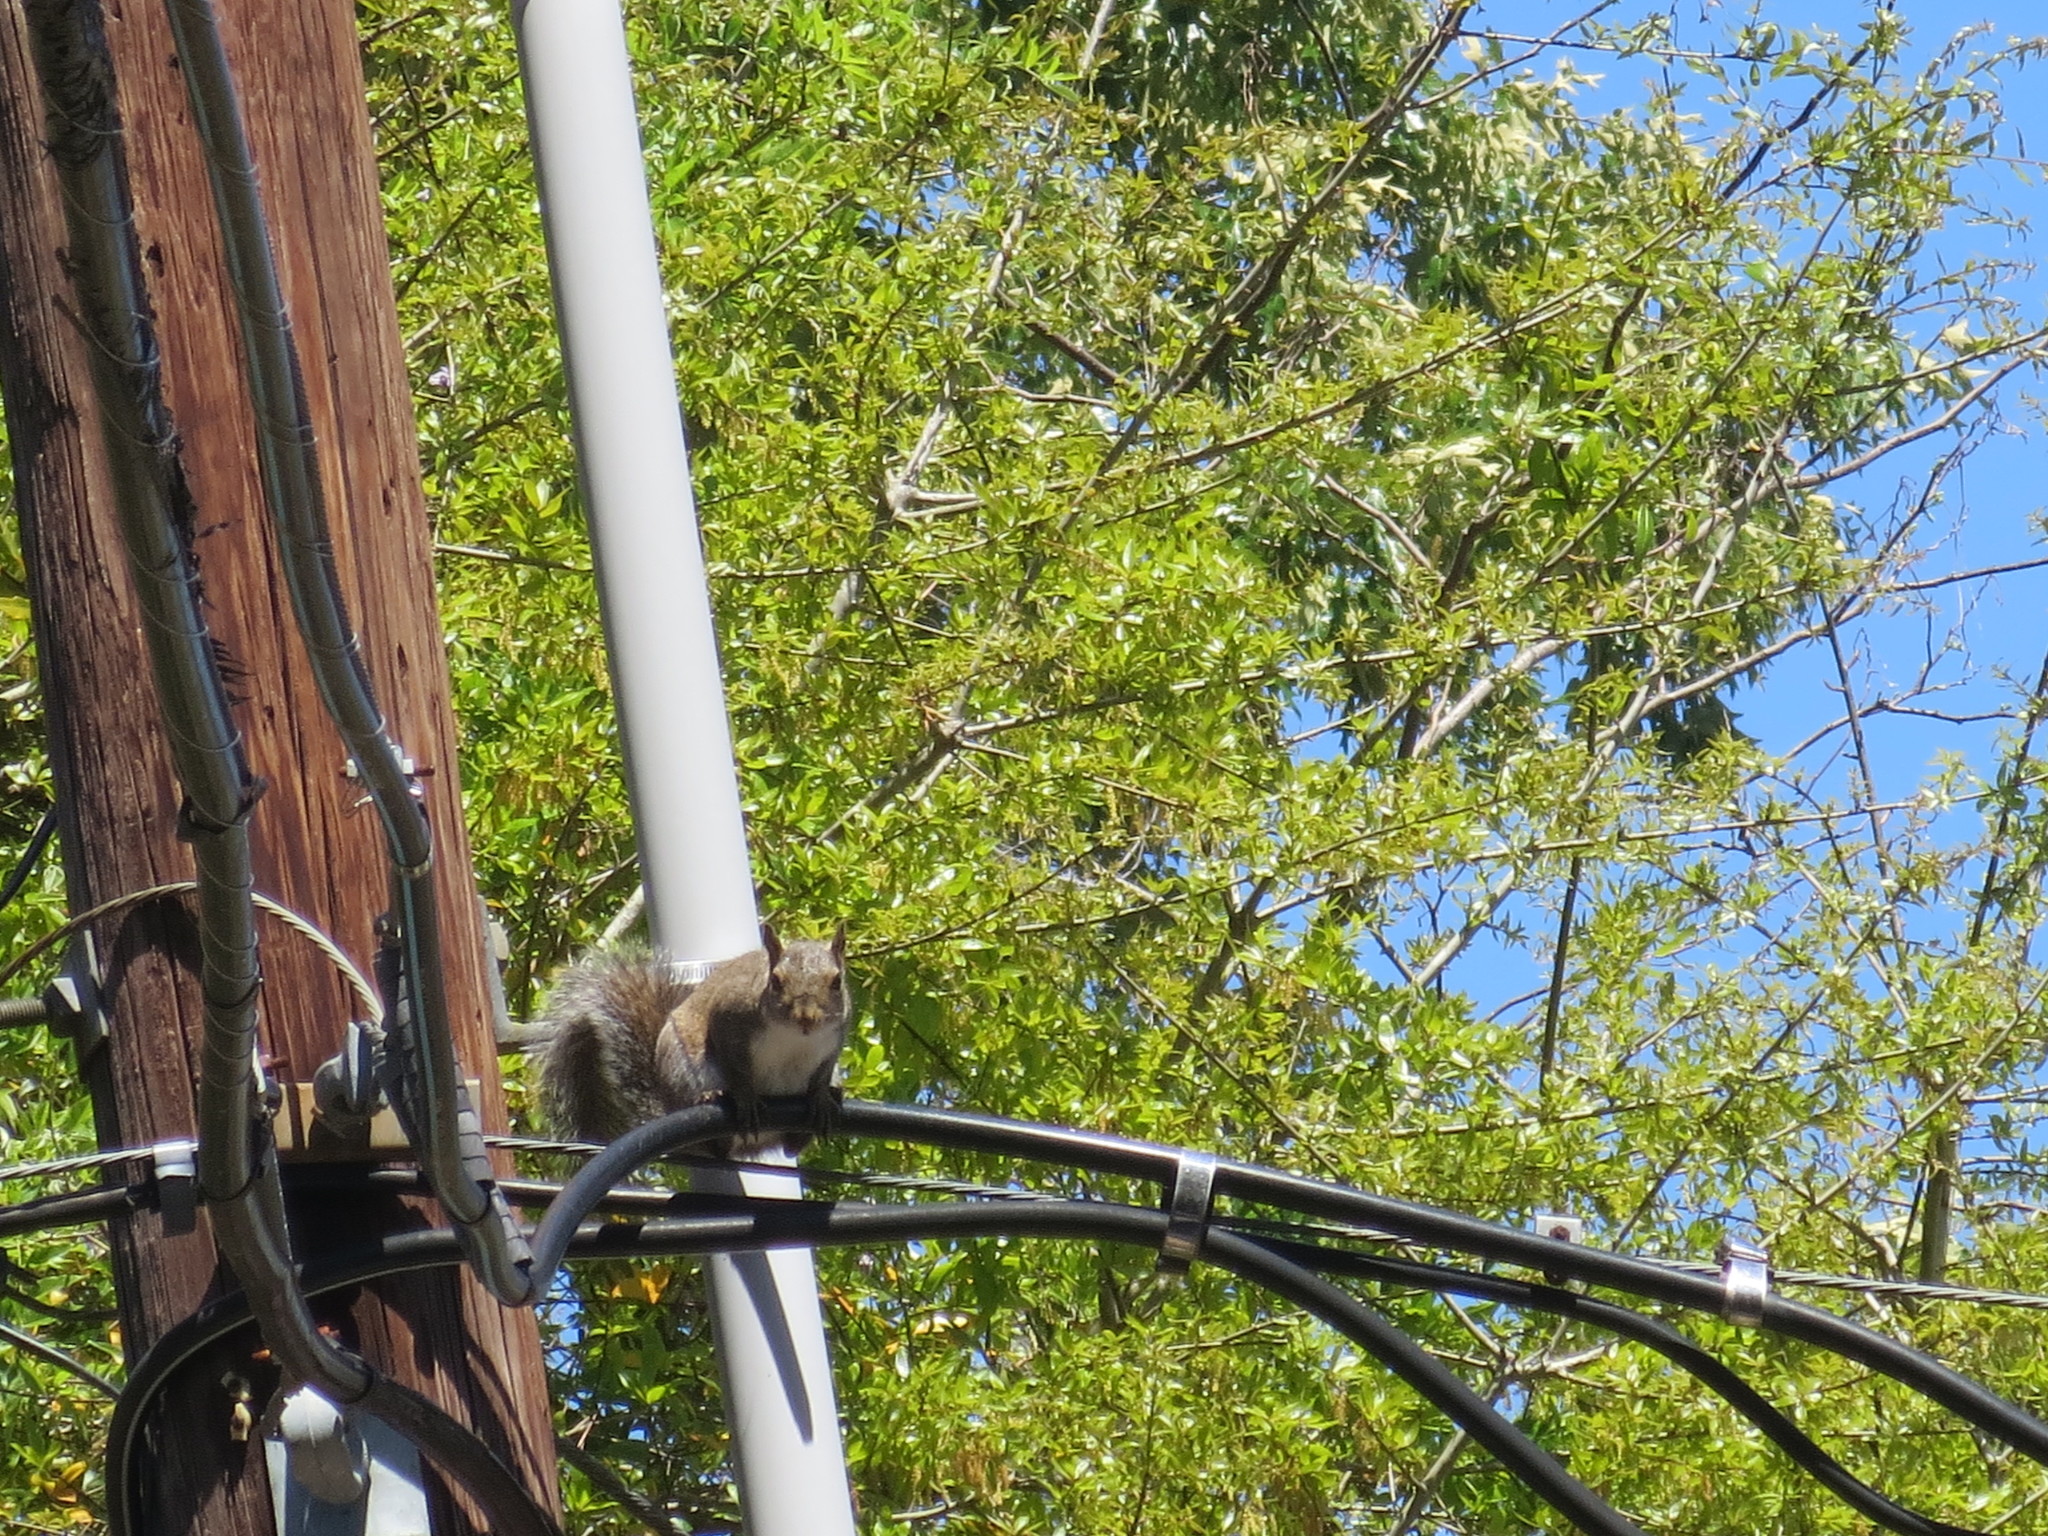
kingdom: Animalia
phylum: Chordata
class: Mammalia
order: Rodentia
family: Sciuridae
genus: Sciurus
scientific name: Sciurus carolinensis
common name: Eastern gray squirrel
